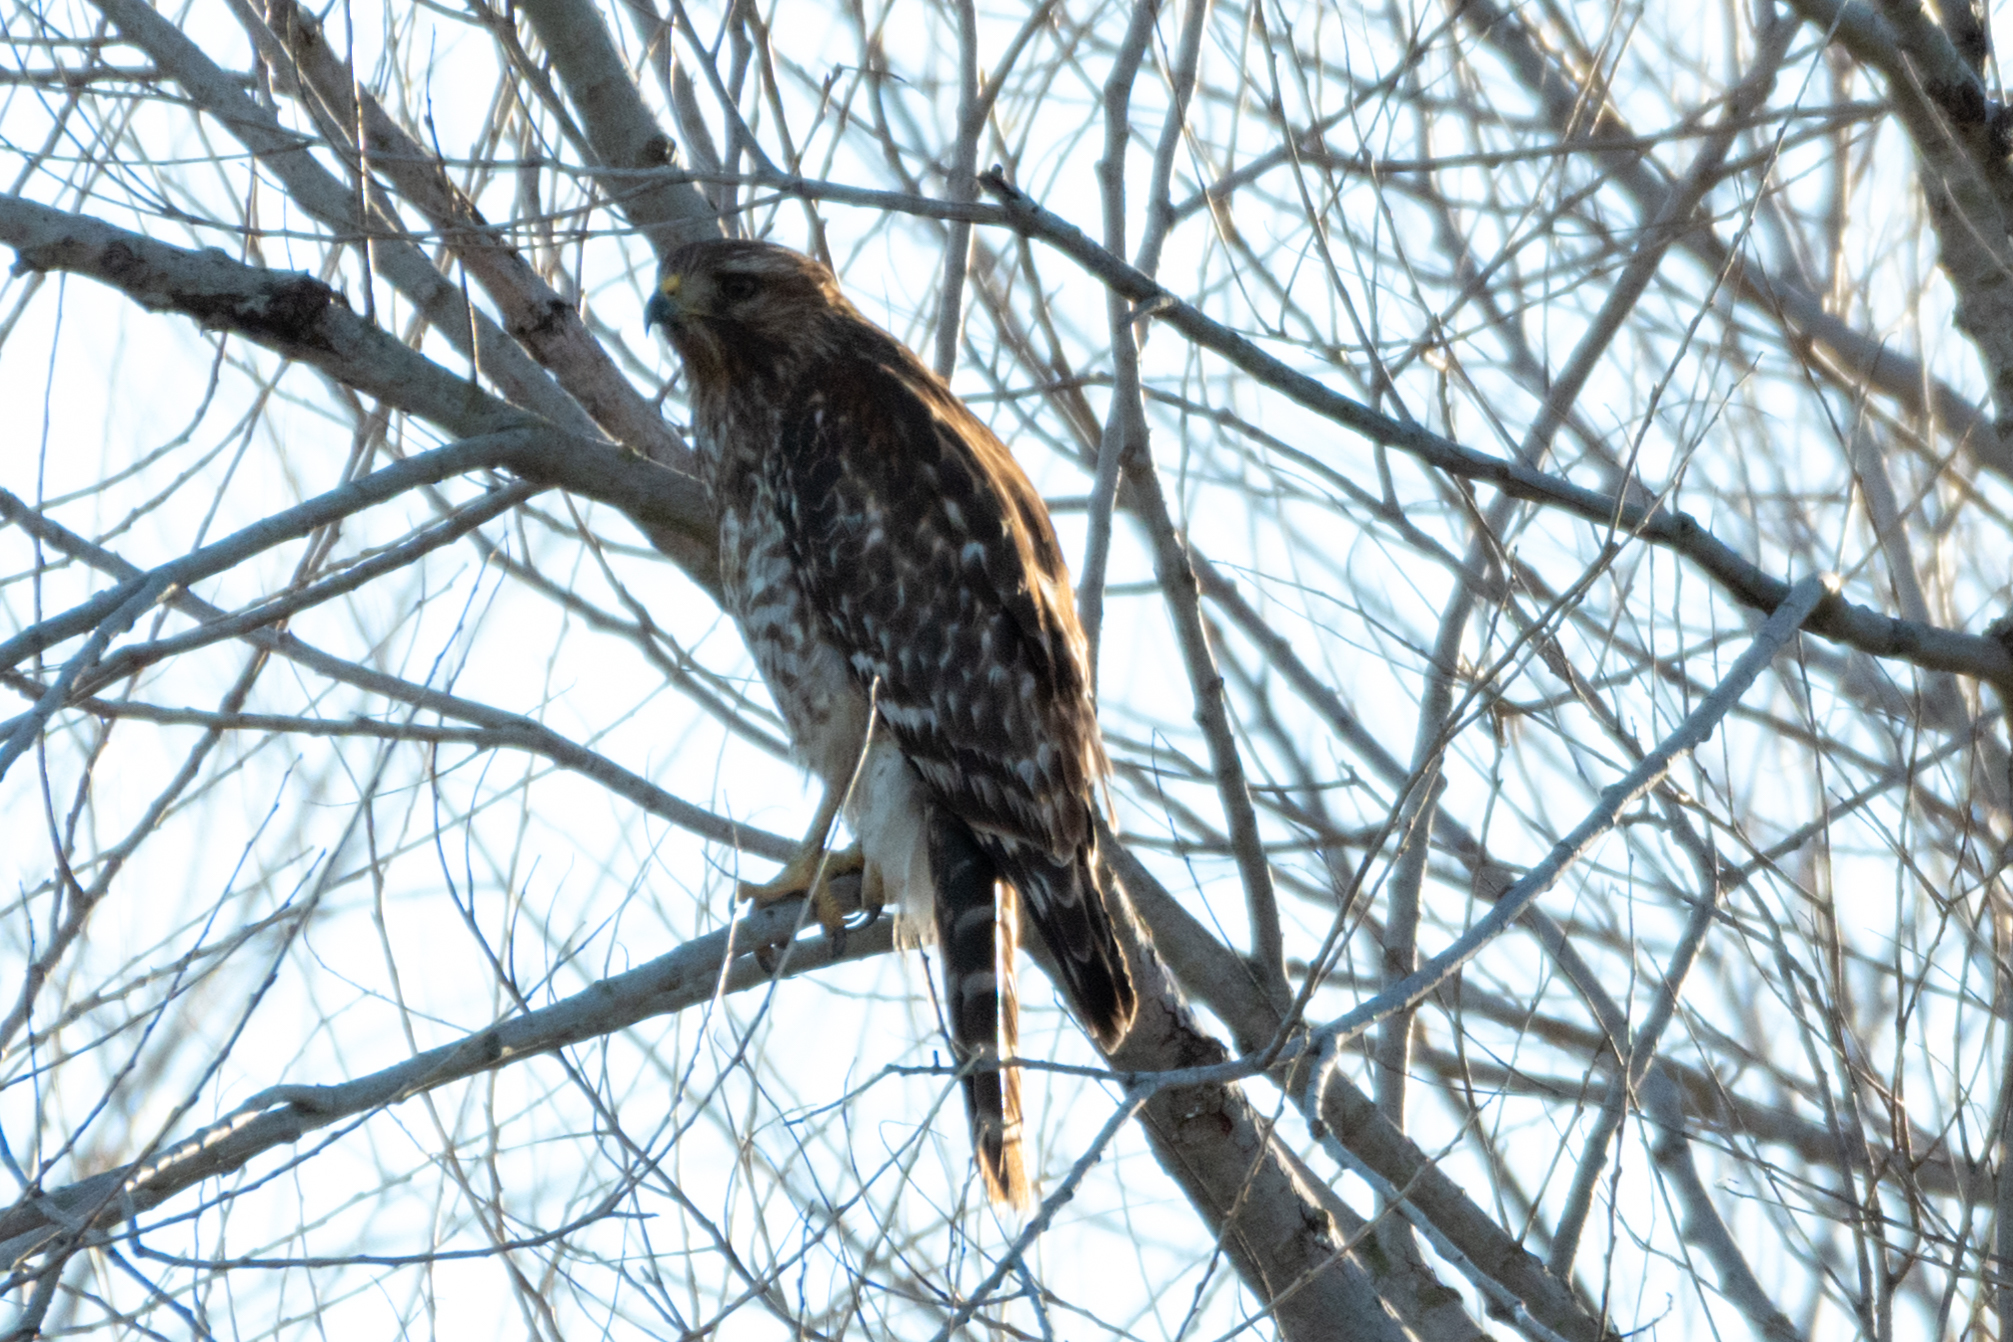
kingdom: Animalia
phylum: Chordata
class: Aves
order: Accipitriformes
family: Accipitridae
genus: Buteo
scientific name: Buteo lineatus
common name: Red-shouldered hawk
